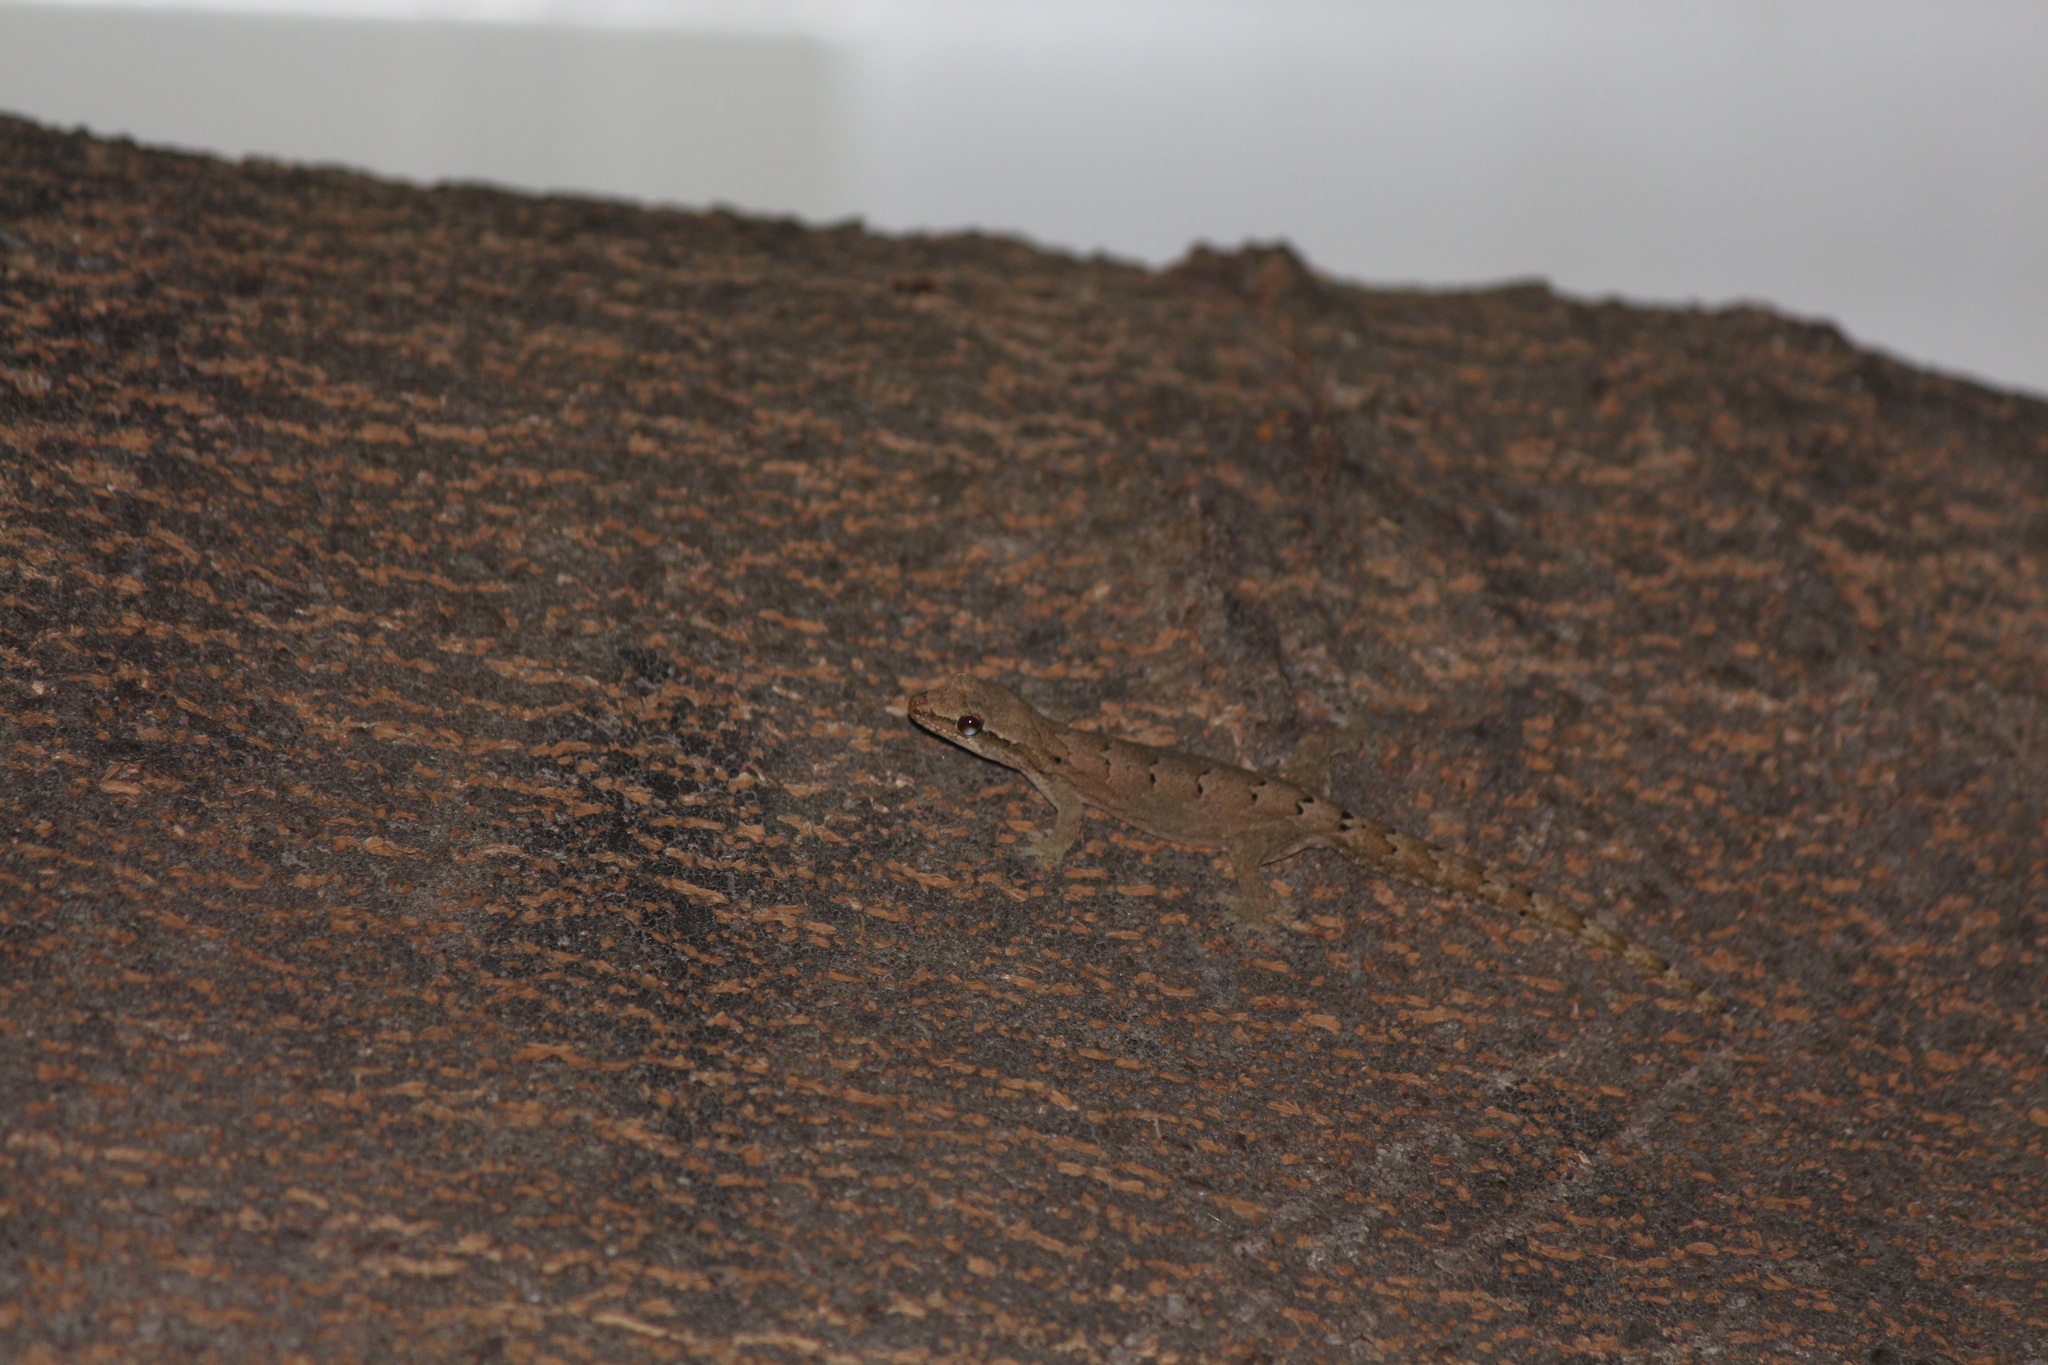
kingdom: Animalia
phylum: Chordata
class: Squamata
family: Gekkonidae
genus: Lepidodactylus
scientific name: Lepidodactylus lugubris
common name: Mourning gecko
